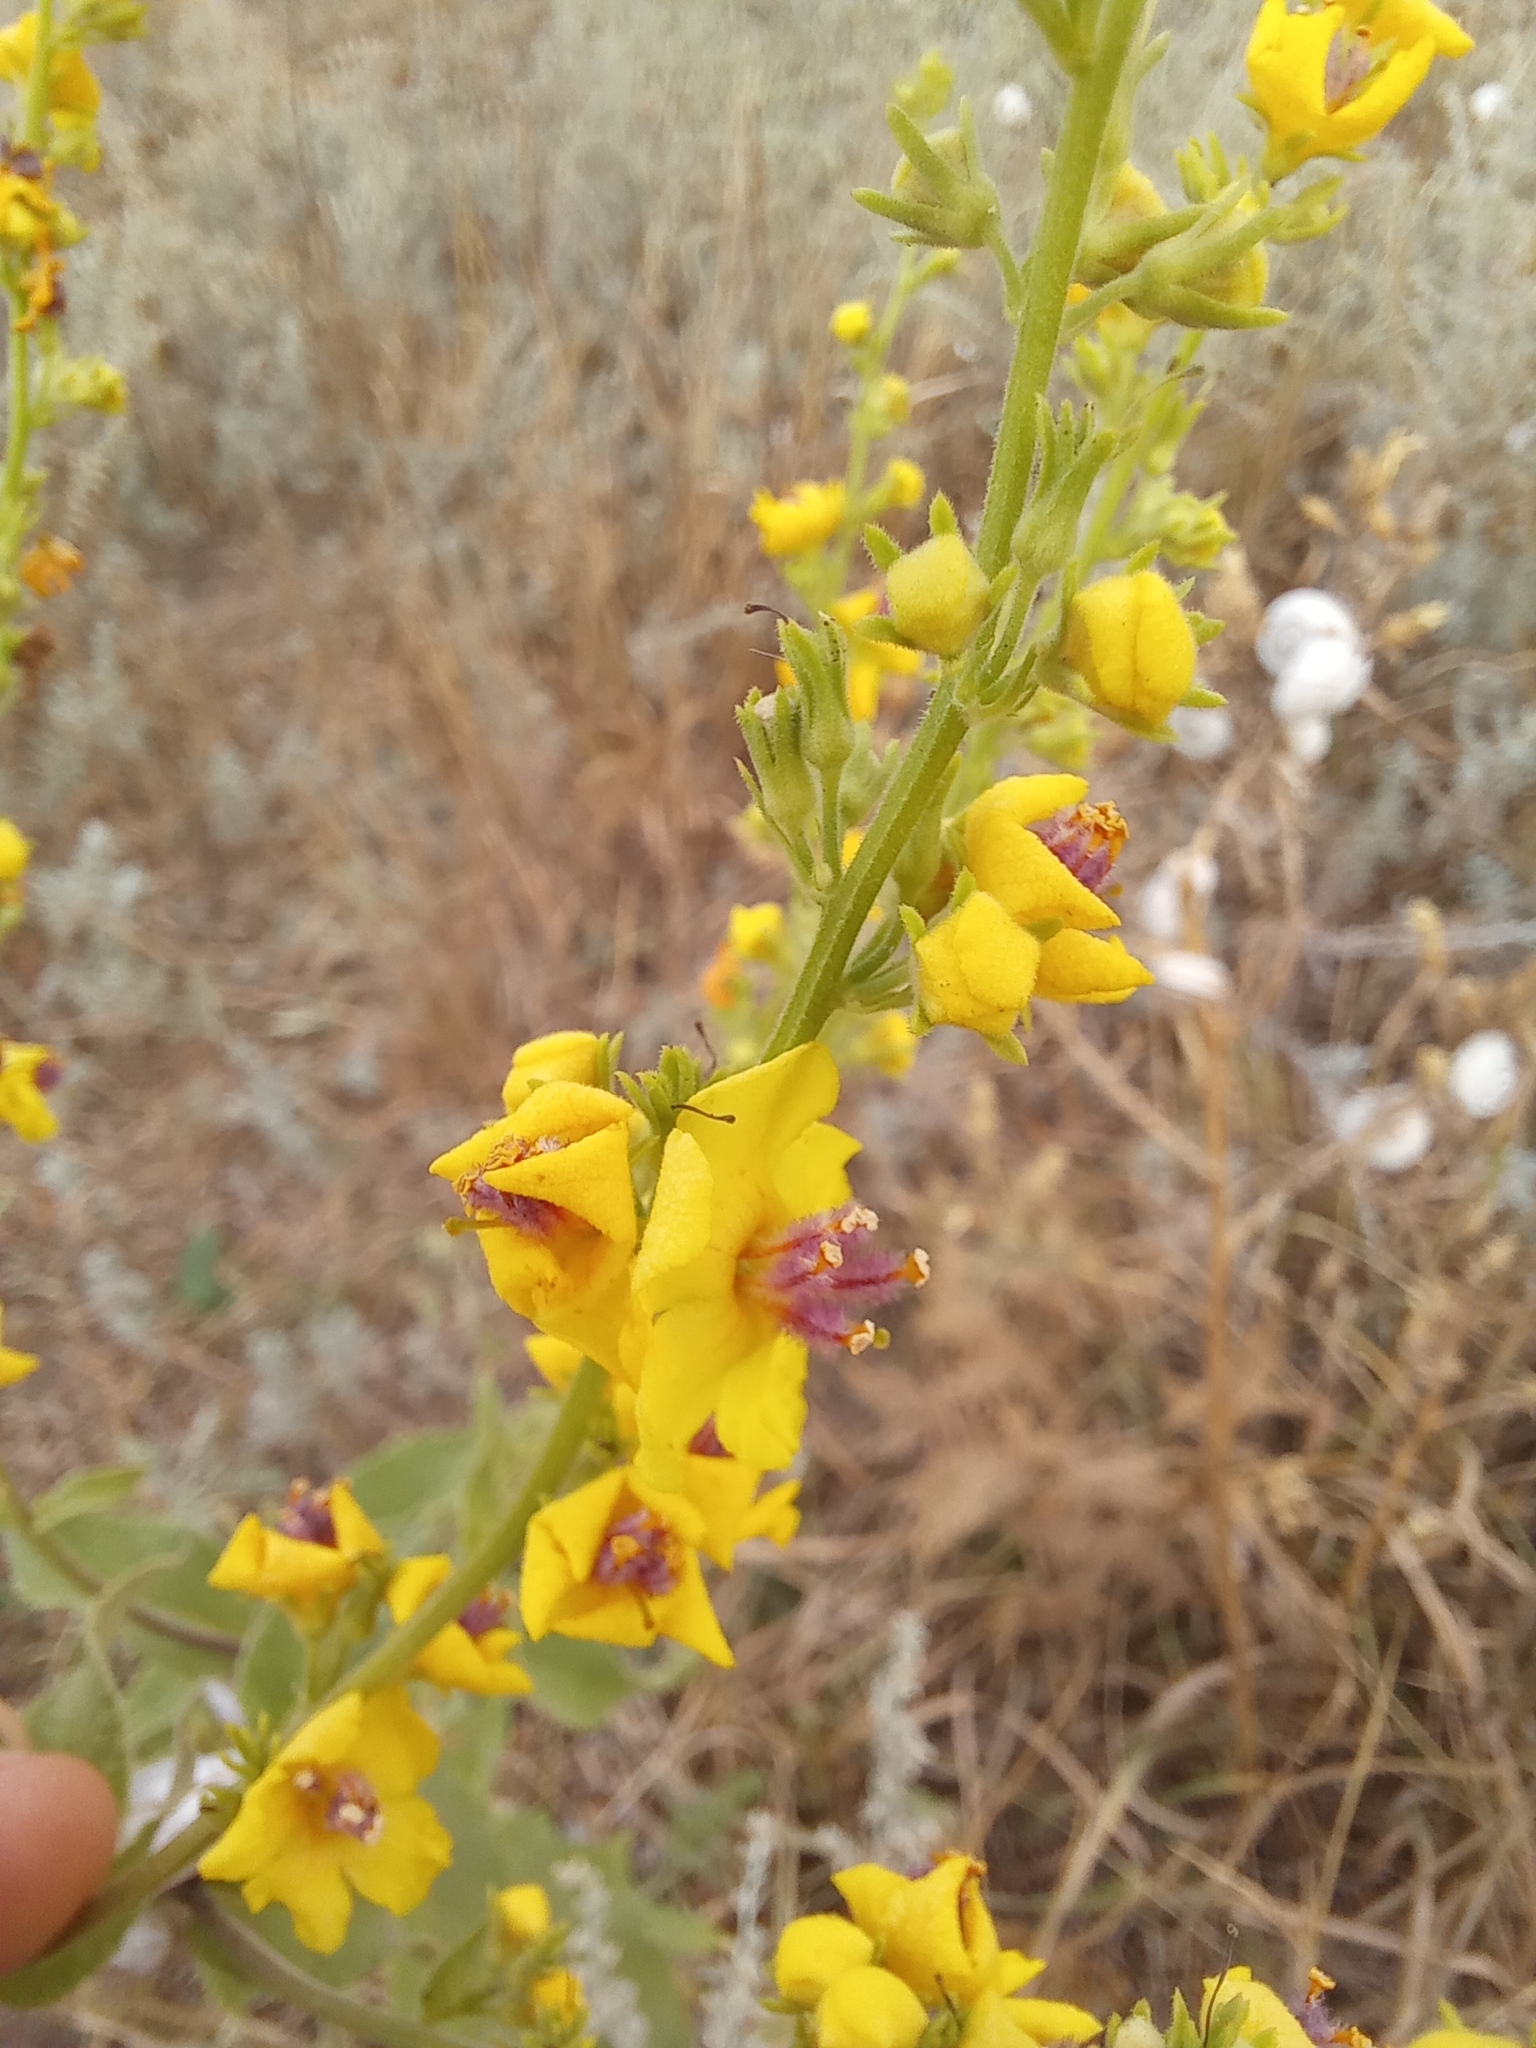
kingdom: Plantae
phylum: Tracheophyta
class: Magnoliopsida
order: Lamiales
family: Scrophulariaceae
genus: Verbascum
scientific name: Verbascum pyramidatum
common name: Caucasian mullein
